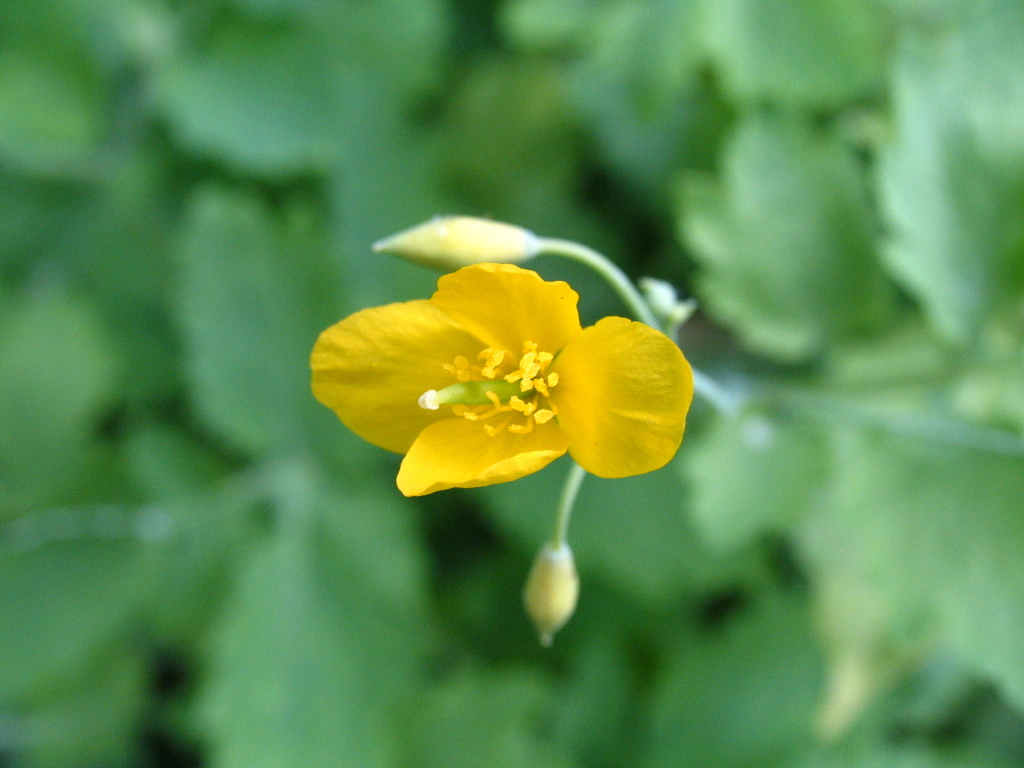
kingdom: Plantae
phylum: Tracheophyta
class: Magnoliopsida
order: Ranunculales
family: Papaveraceae
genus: Chelidonium
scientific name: Chelidonium majus
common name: Greater celandine
